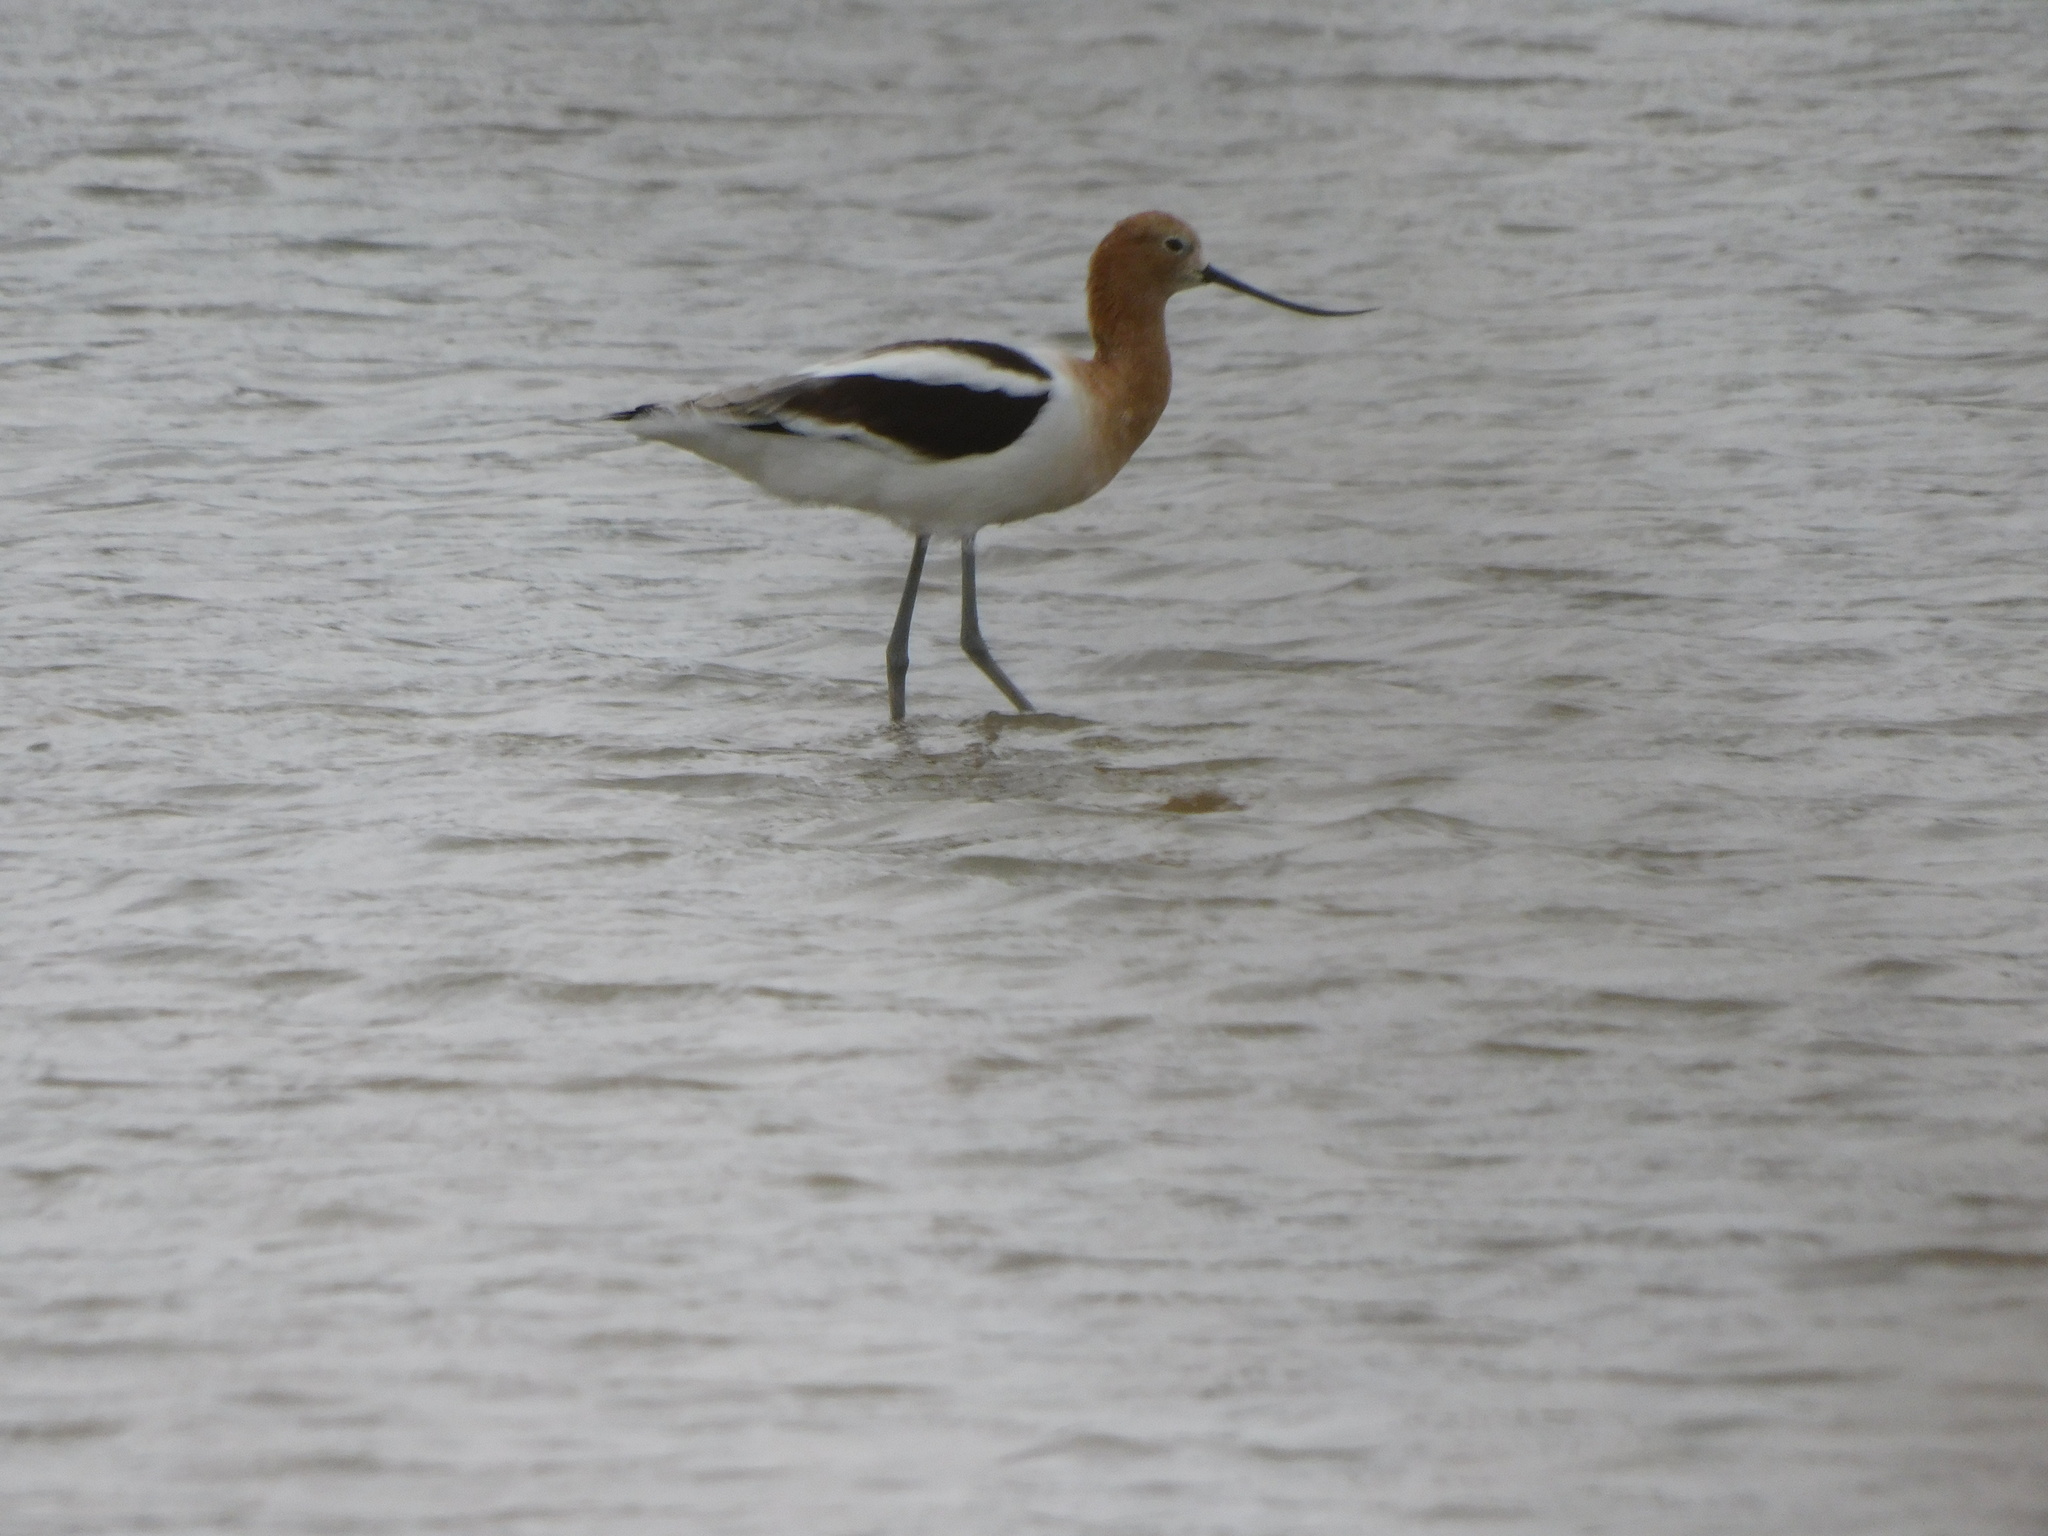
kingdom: Animalia
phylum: Chordata
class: Aves
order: Charadriiformes
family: Recurvirostridae
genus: Recurvirostra
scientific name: Recurvirostra americana
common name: American avocet
